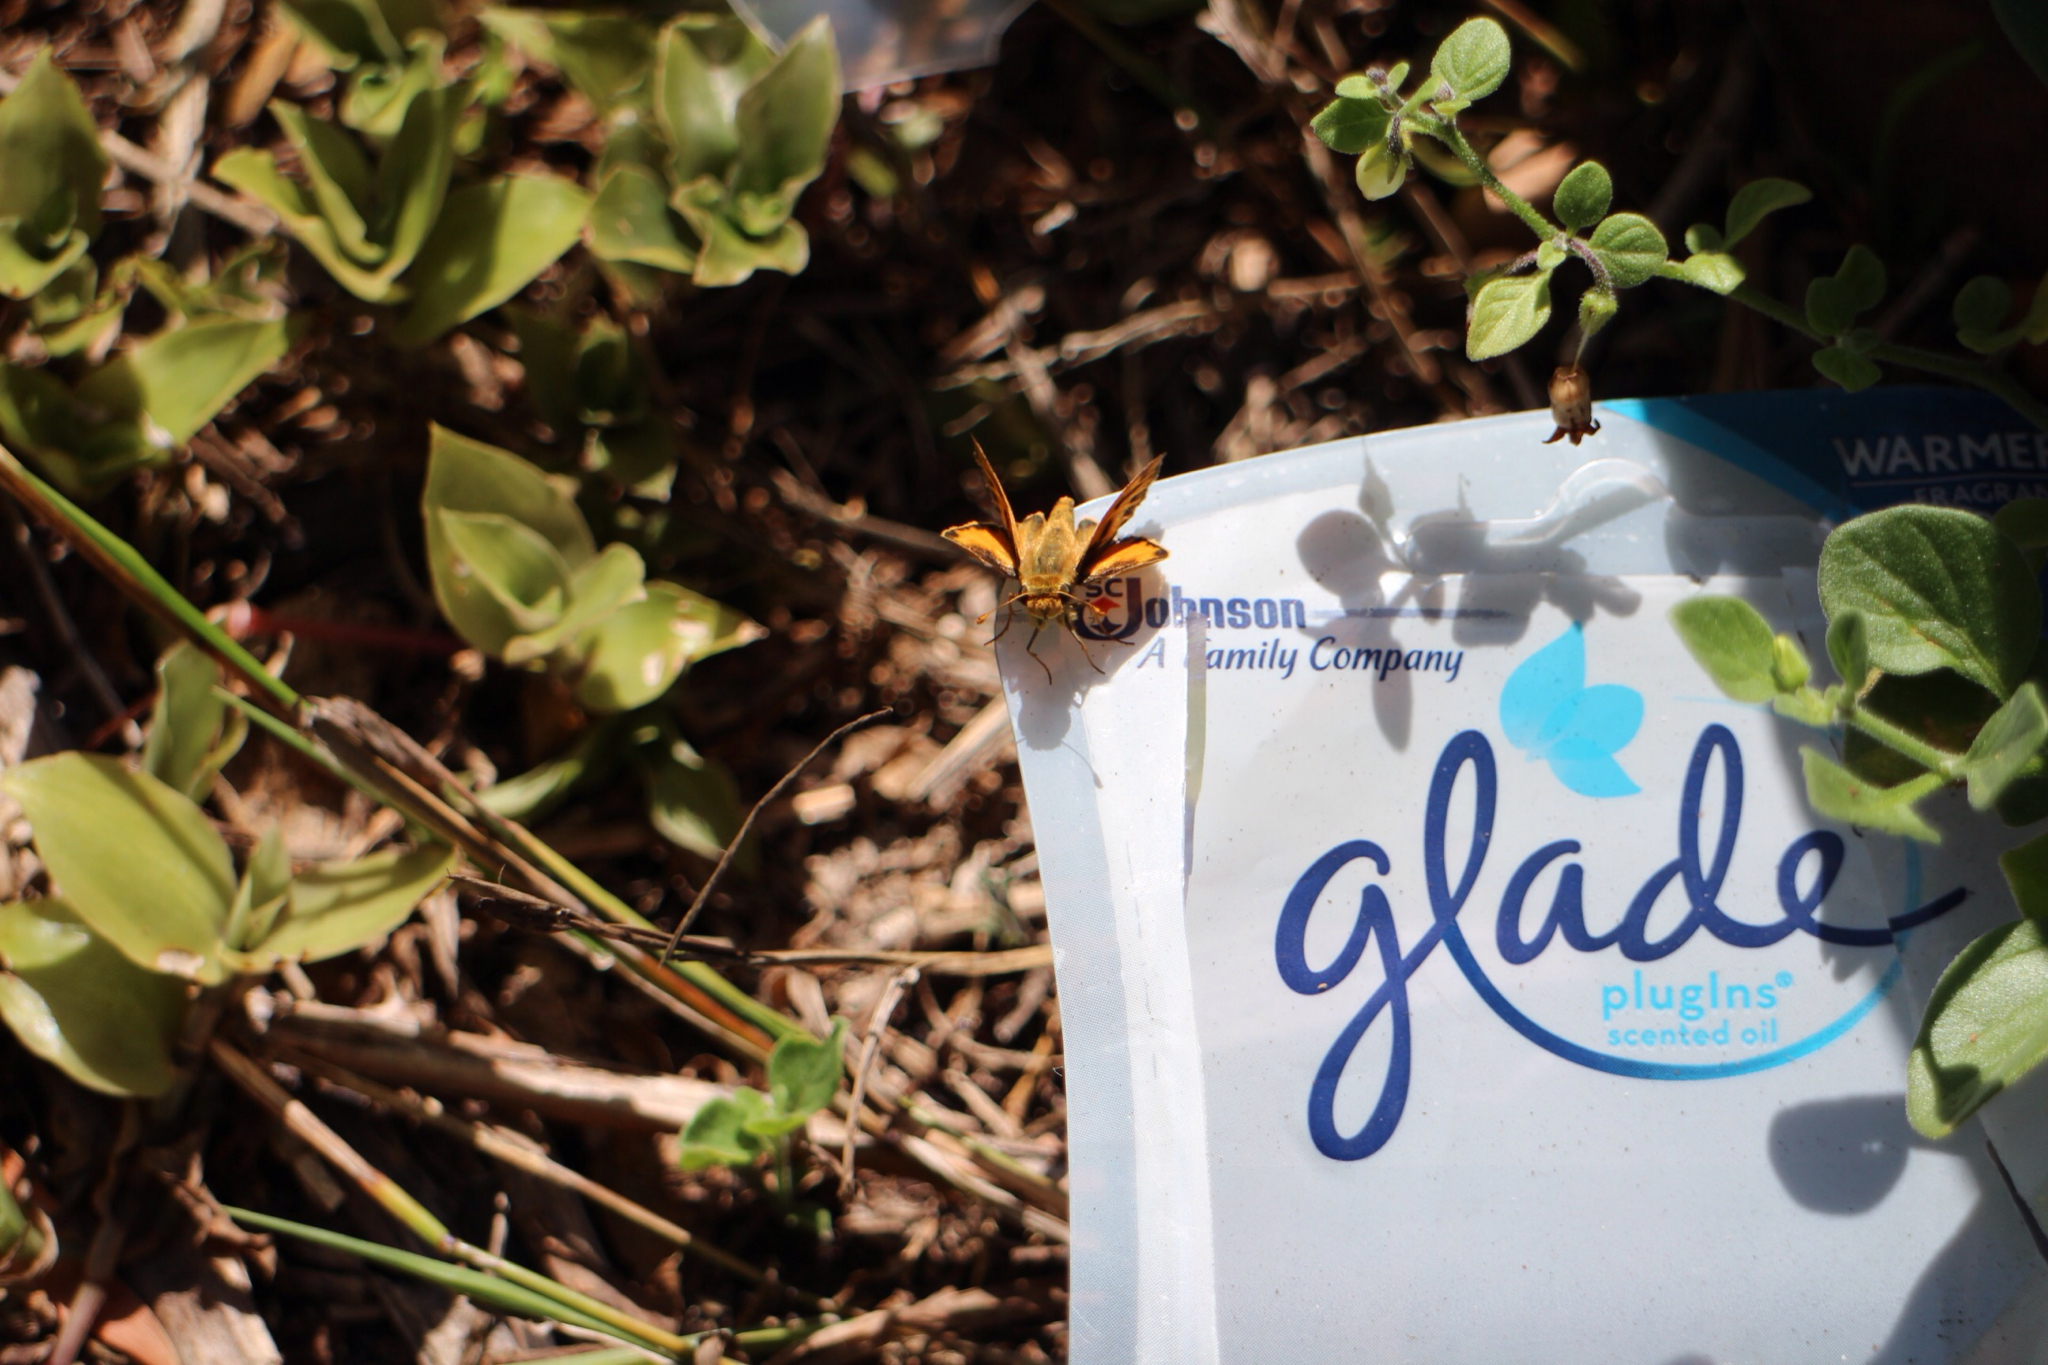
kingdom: Animalia
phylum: Arthropoda
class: Insecta
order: Lepidoptera
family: Hesperiidae
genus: Hylephila
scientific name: Hylephila phyleus
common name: Fiery skipper
